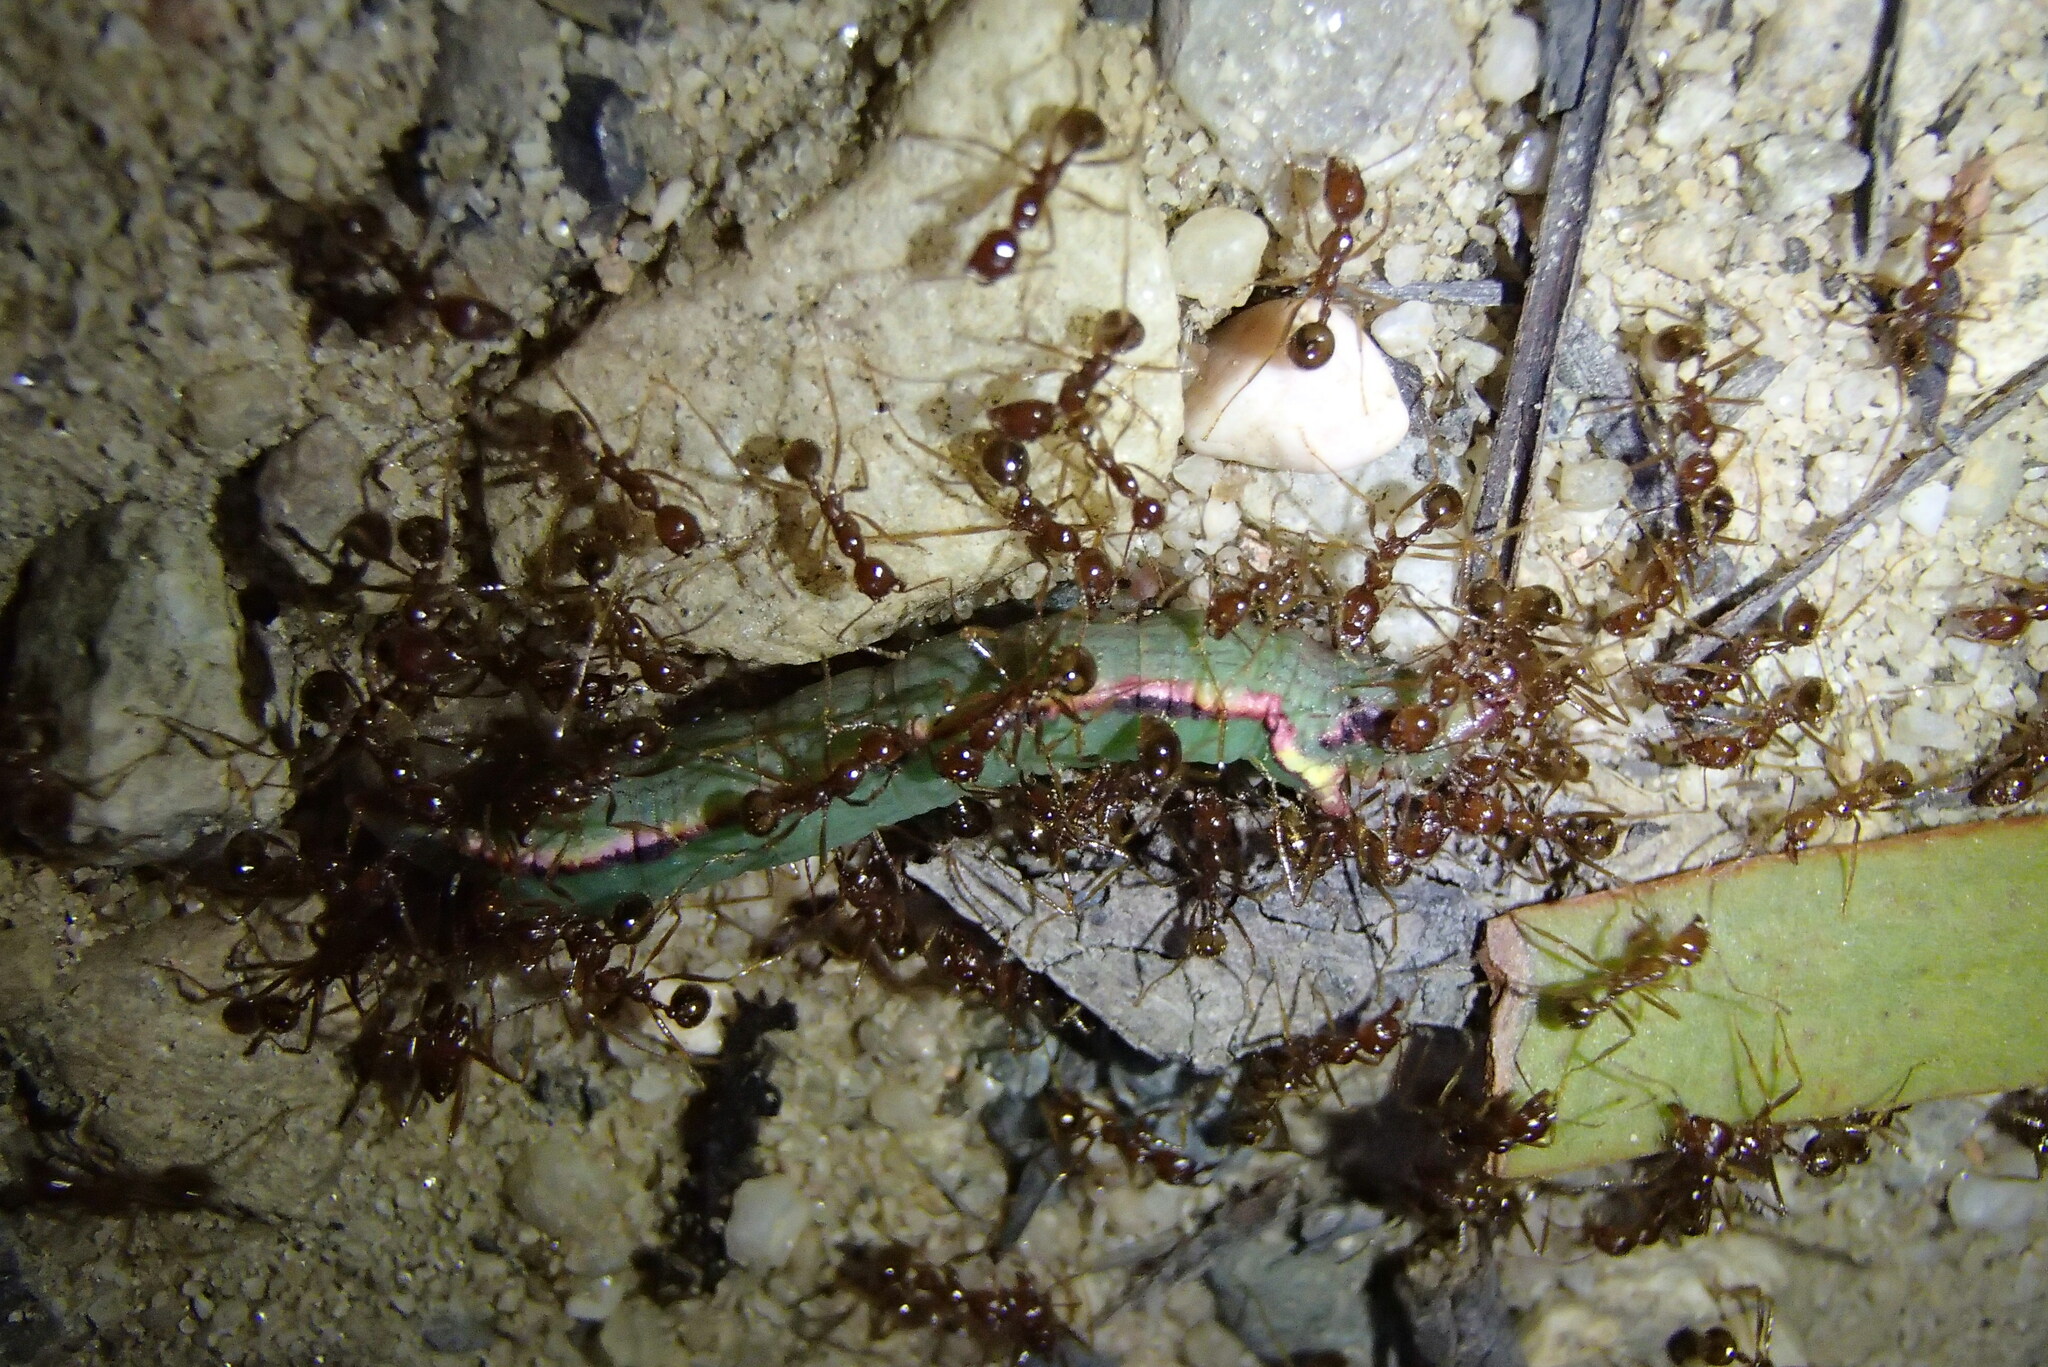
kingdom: Animalia
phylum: Arthropoda
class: Insecta
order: Hymenoptera
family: Formicidae
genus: Aphaenogaster
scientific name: Aphaenogaster longiceps
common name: Funnel ant
